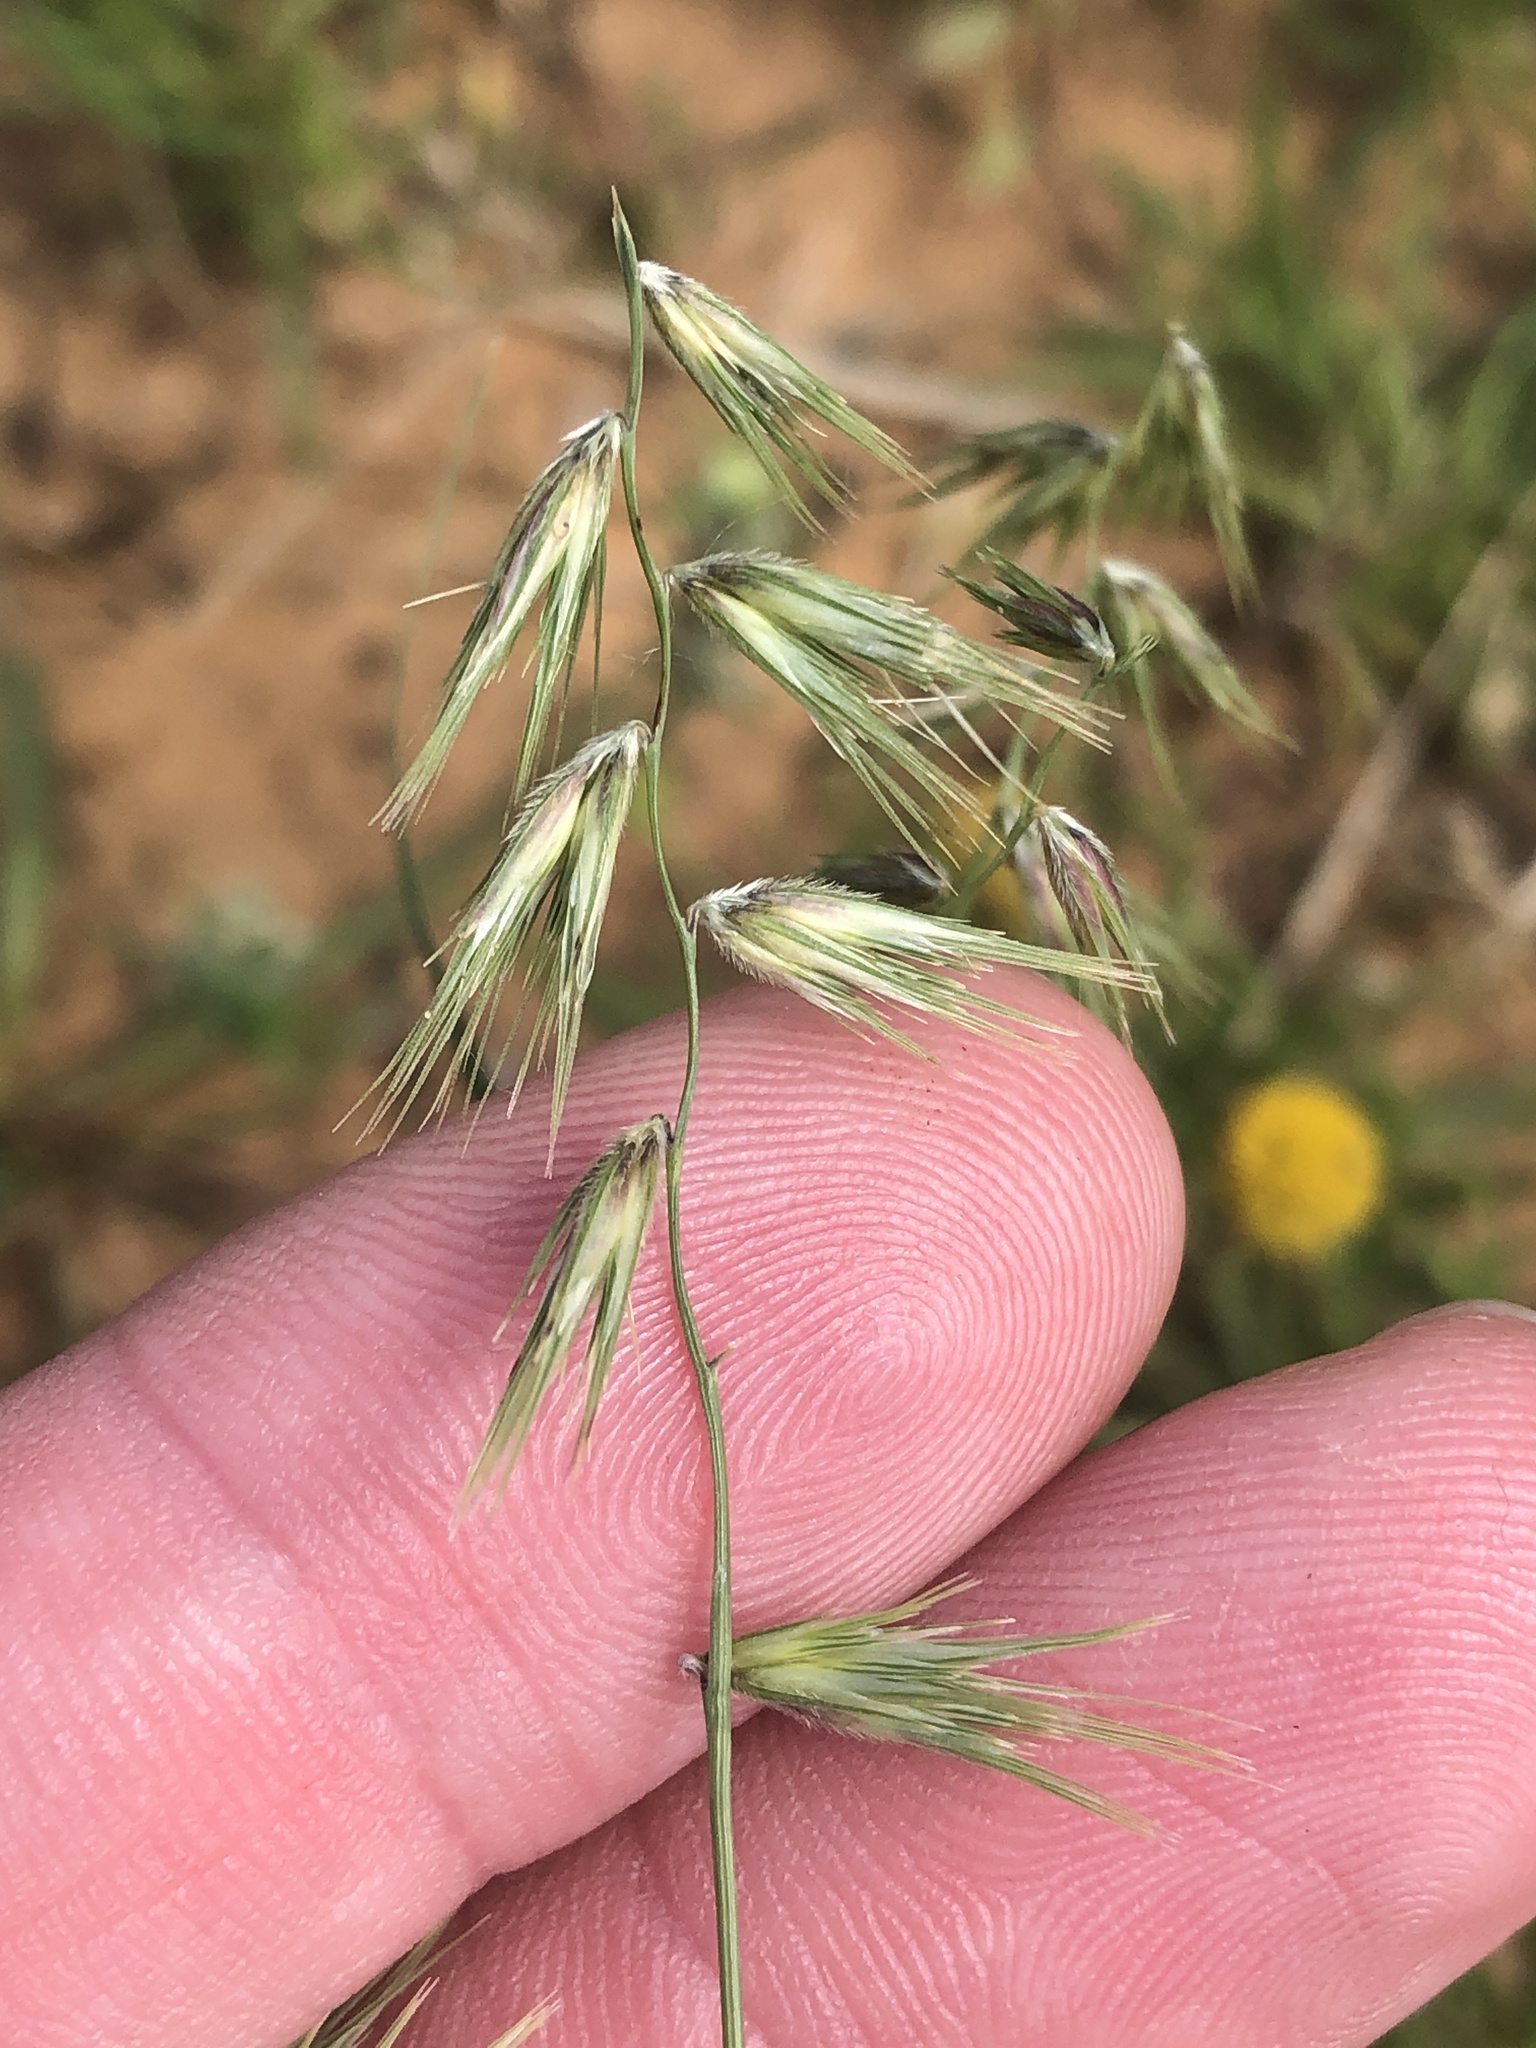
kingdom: Plantae
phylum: Tracheophyta
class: Liliopsida
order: Poales
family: Poaceae
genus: Bouteloua
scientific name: Bouteloua rigidiseta
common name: Texas grama
